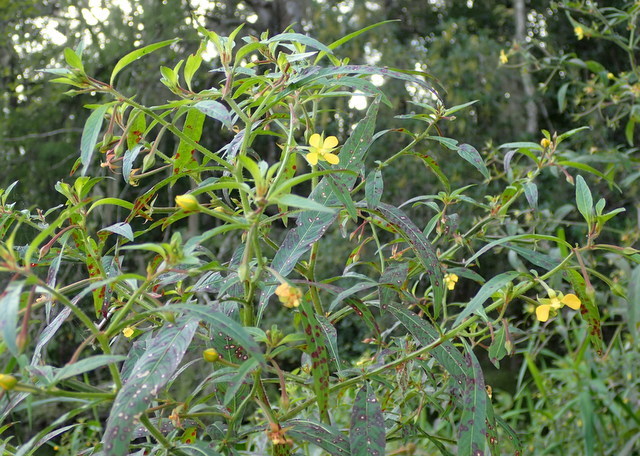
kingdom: Plantae
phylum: Tracheophyta
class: Magnoliopsida
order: Myrtales
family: Onagraceae
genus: Ludwigia
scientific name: Ludwigia octovalvis
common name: Water-primrose
